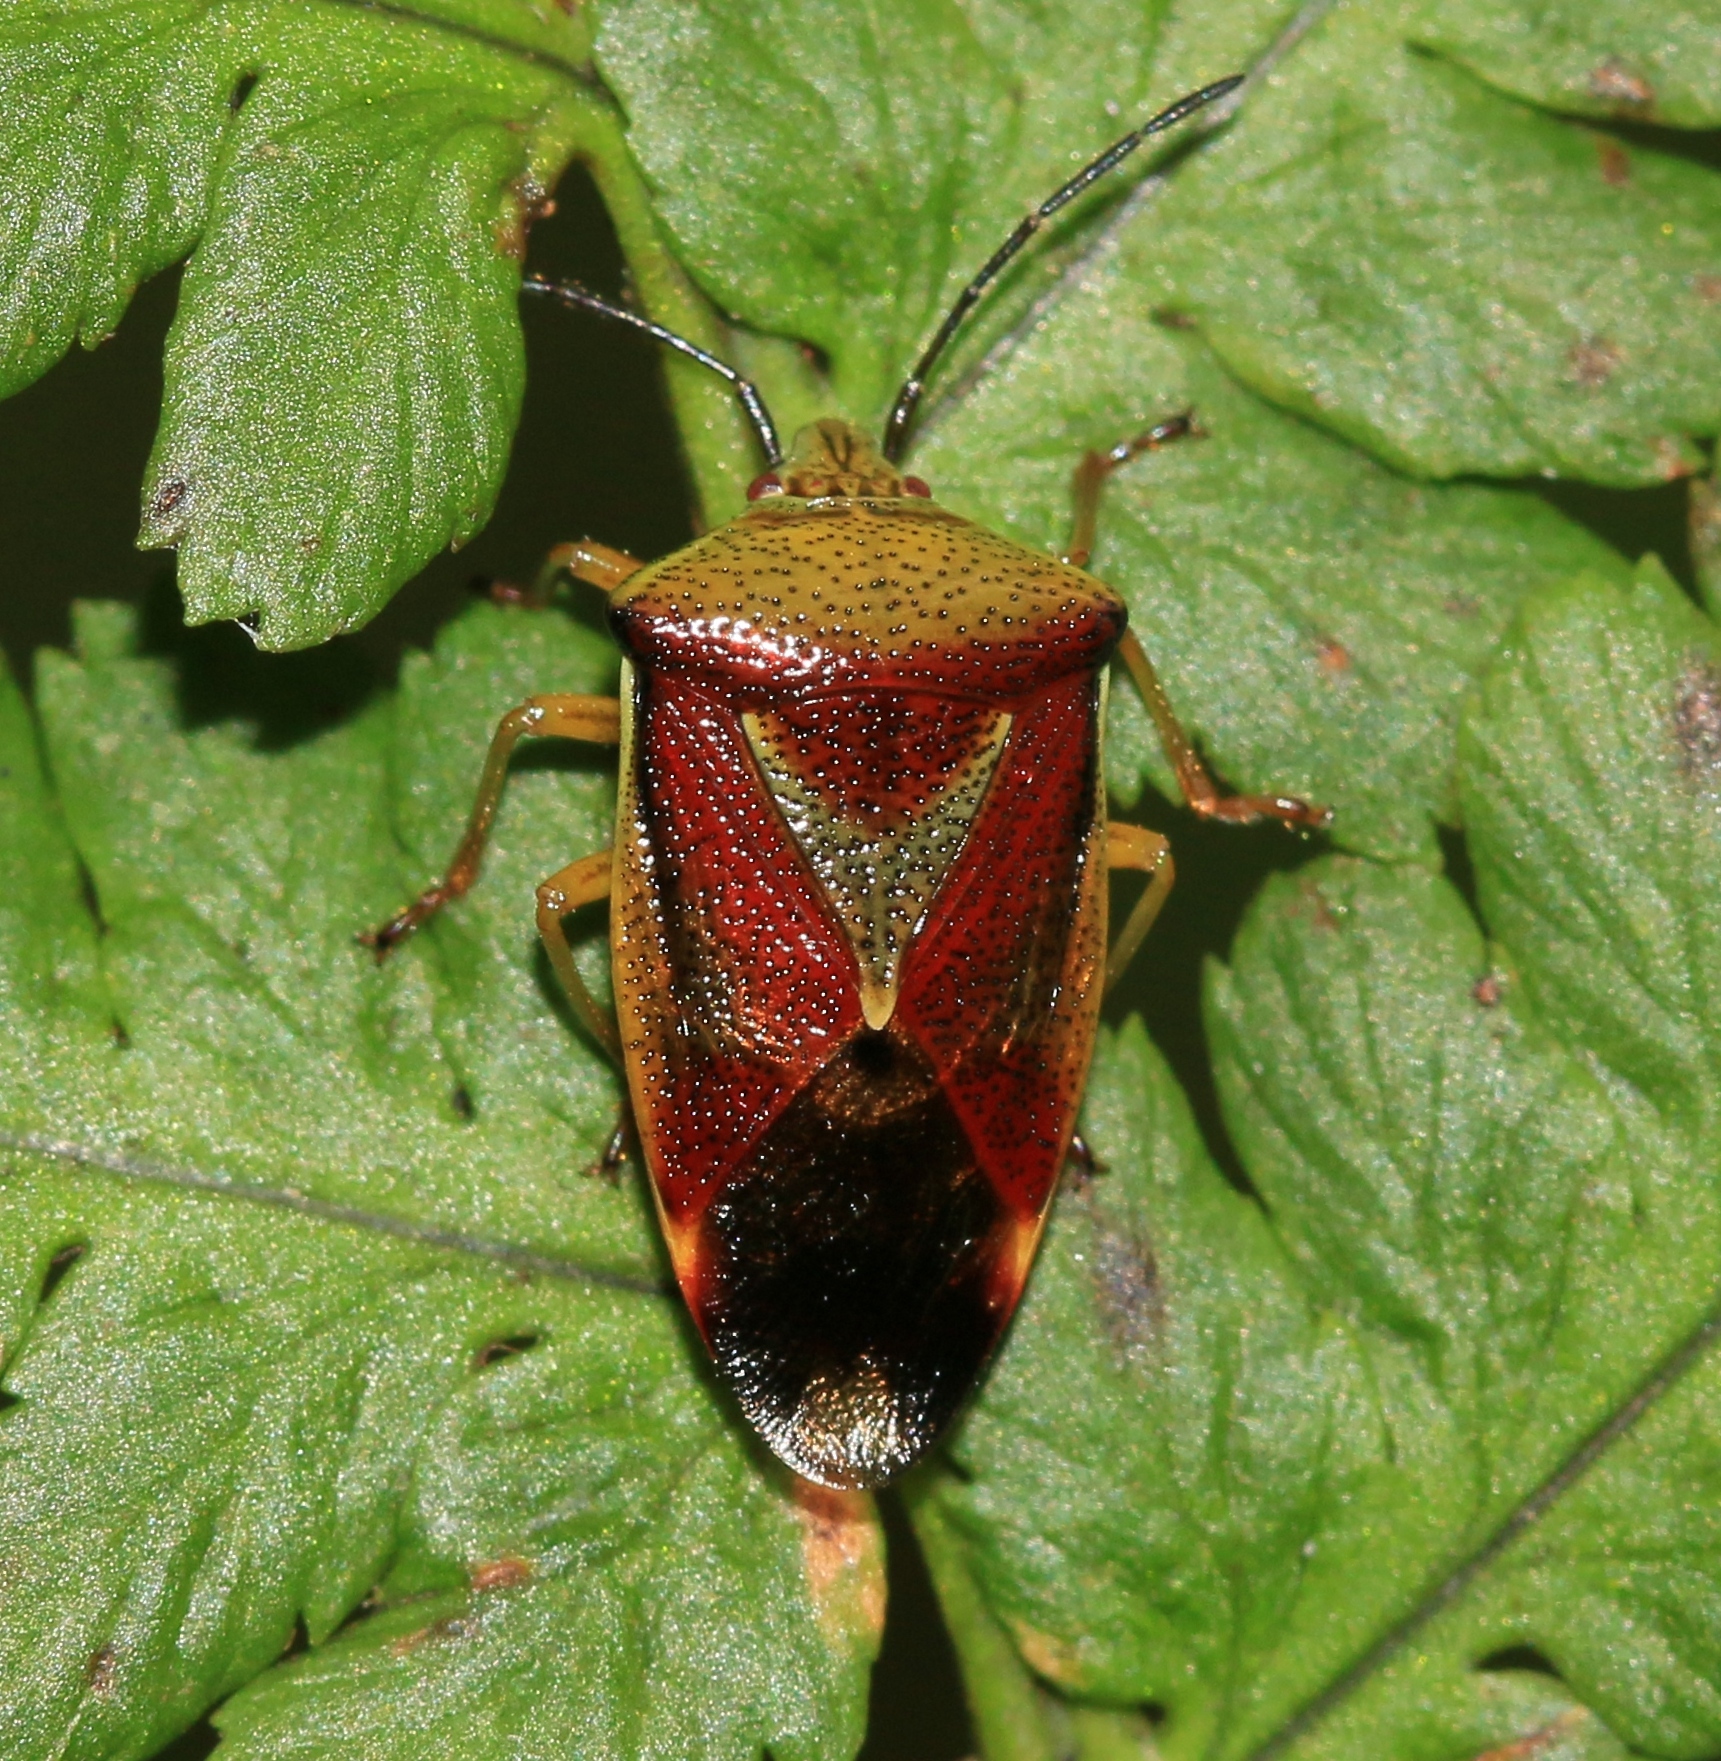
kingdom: Animalia
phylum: Arthropoda
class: Insecta
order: Hemiptera
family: Acanthosomatidae
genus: Elasmostethus
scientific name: Elasmostethus interstinctus
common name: Birch shieldbug
